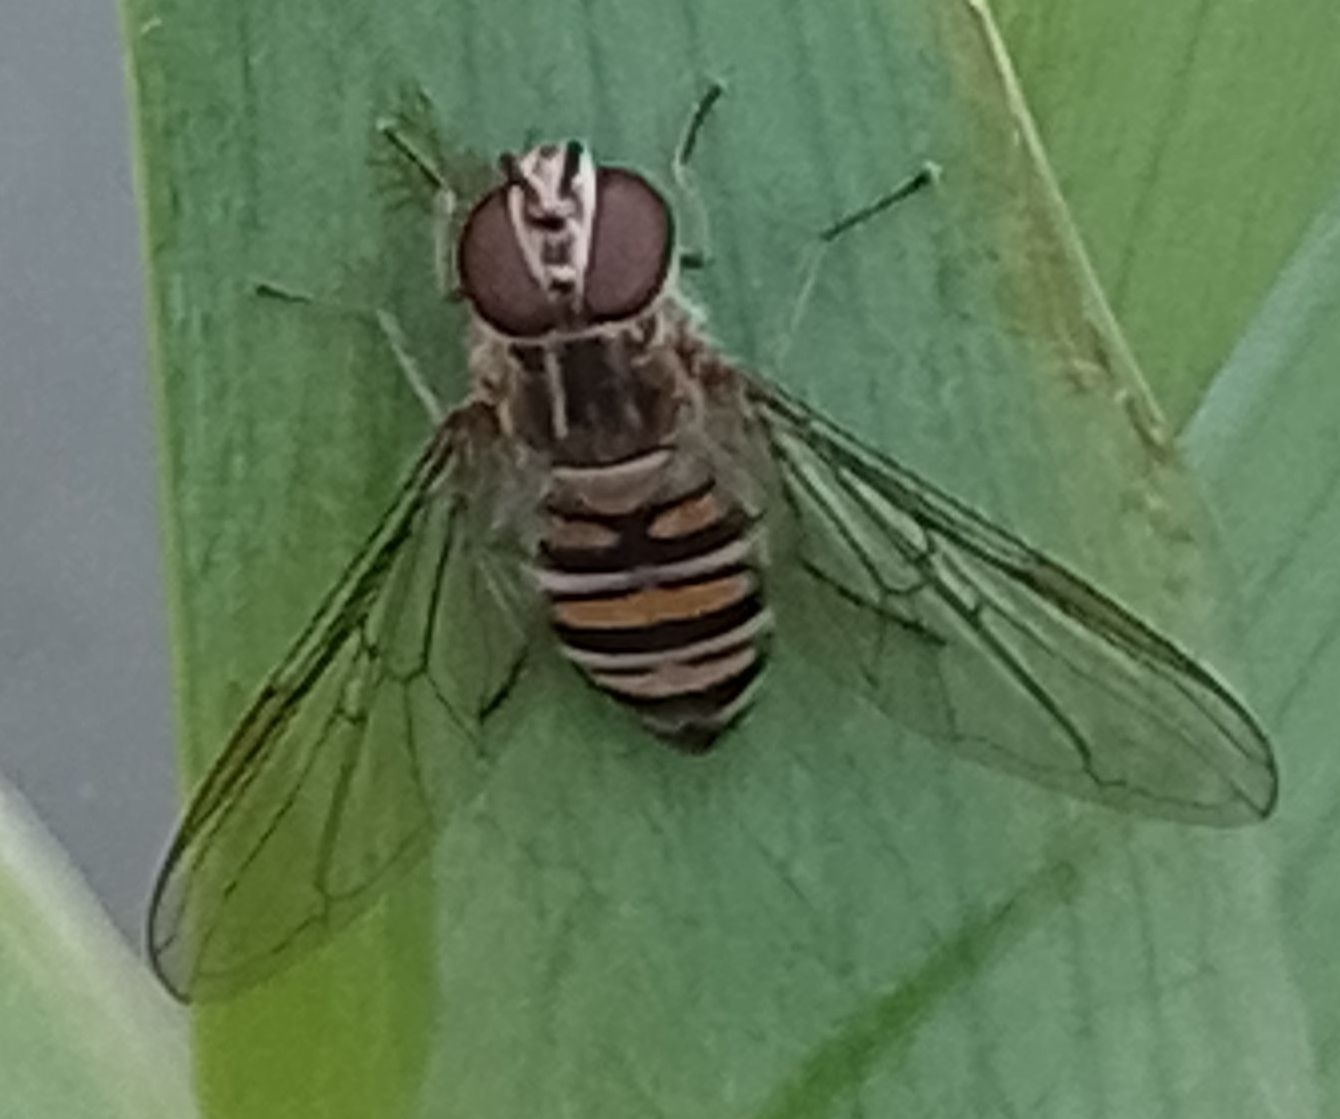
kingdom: Animalia
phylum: Arthropoda
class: Insecta
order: Diptera
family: Syrphidae
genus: Episyrphus
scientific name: Episyrphus balteatus
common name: Marmalade hoverfly
